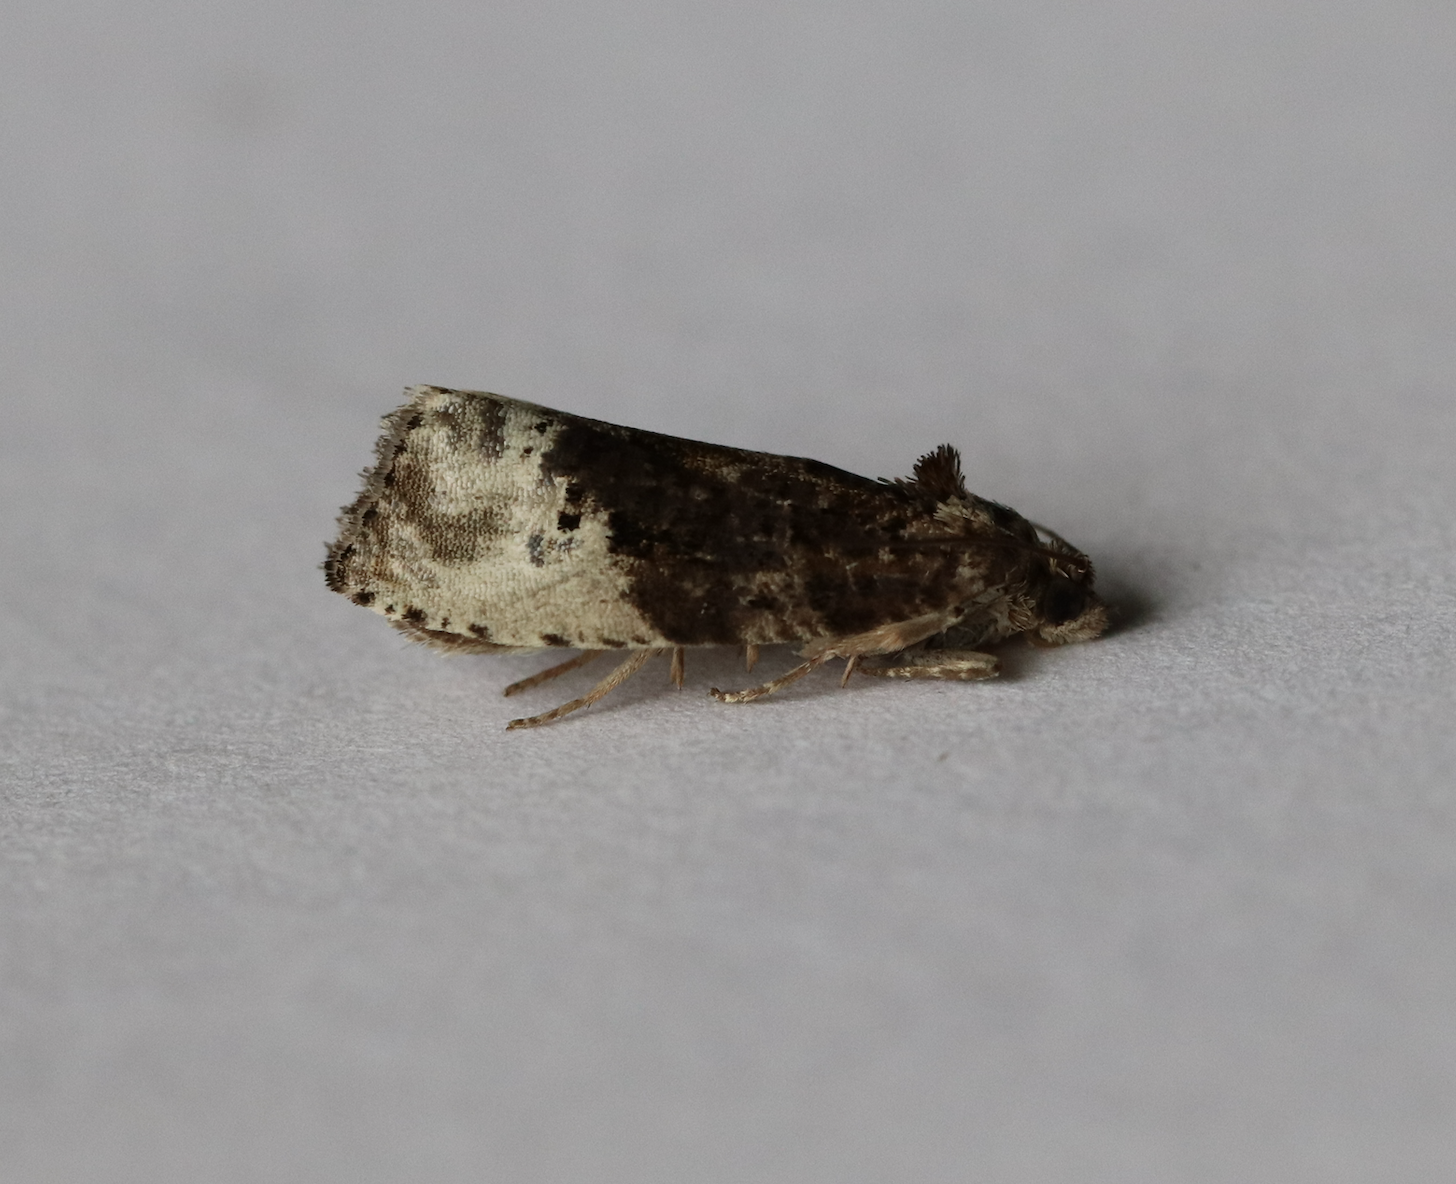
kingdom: Animalia
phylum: Arthropoda
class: Insecta
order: Lepidoptera
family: Tortricidae
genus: Hedya
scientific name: Hedya nubiferana
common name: Marbled orchard tortrix
